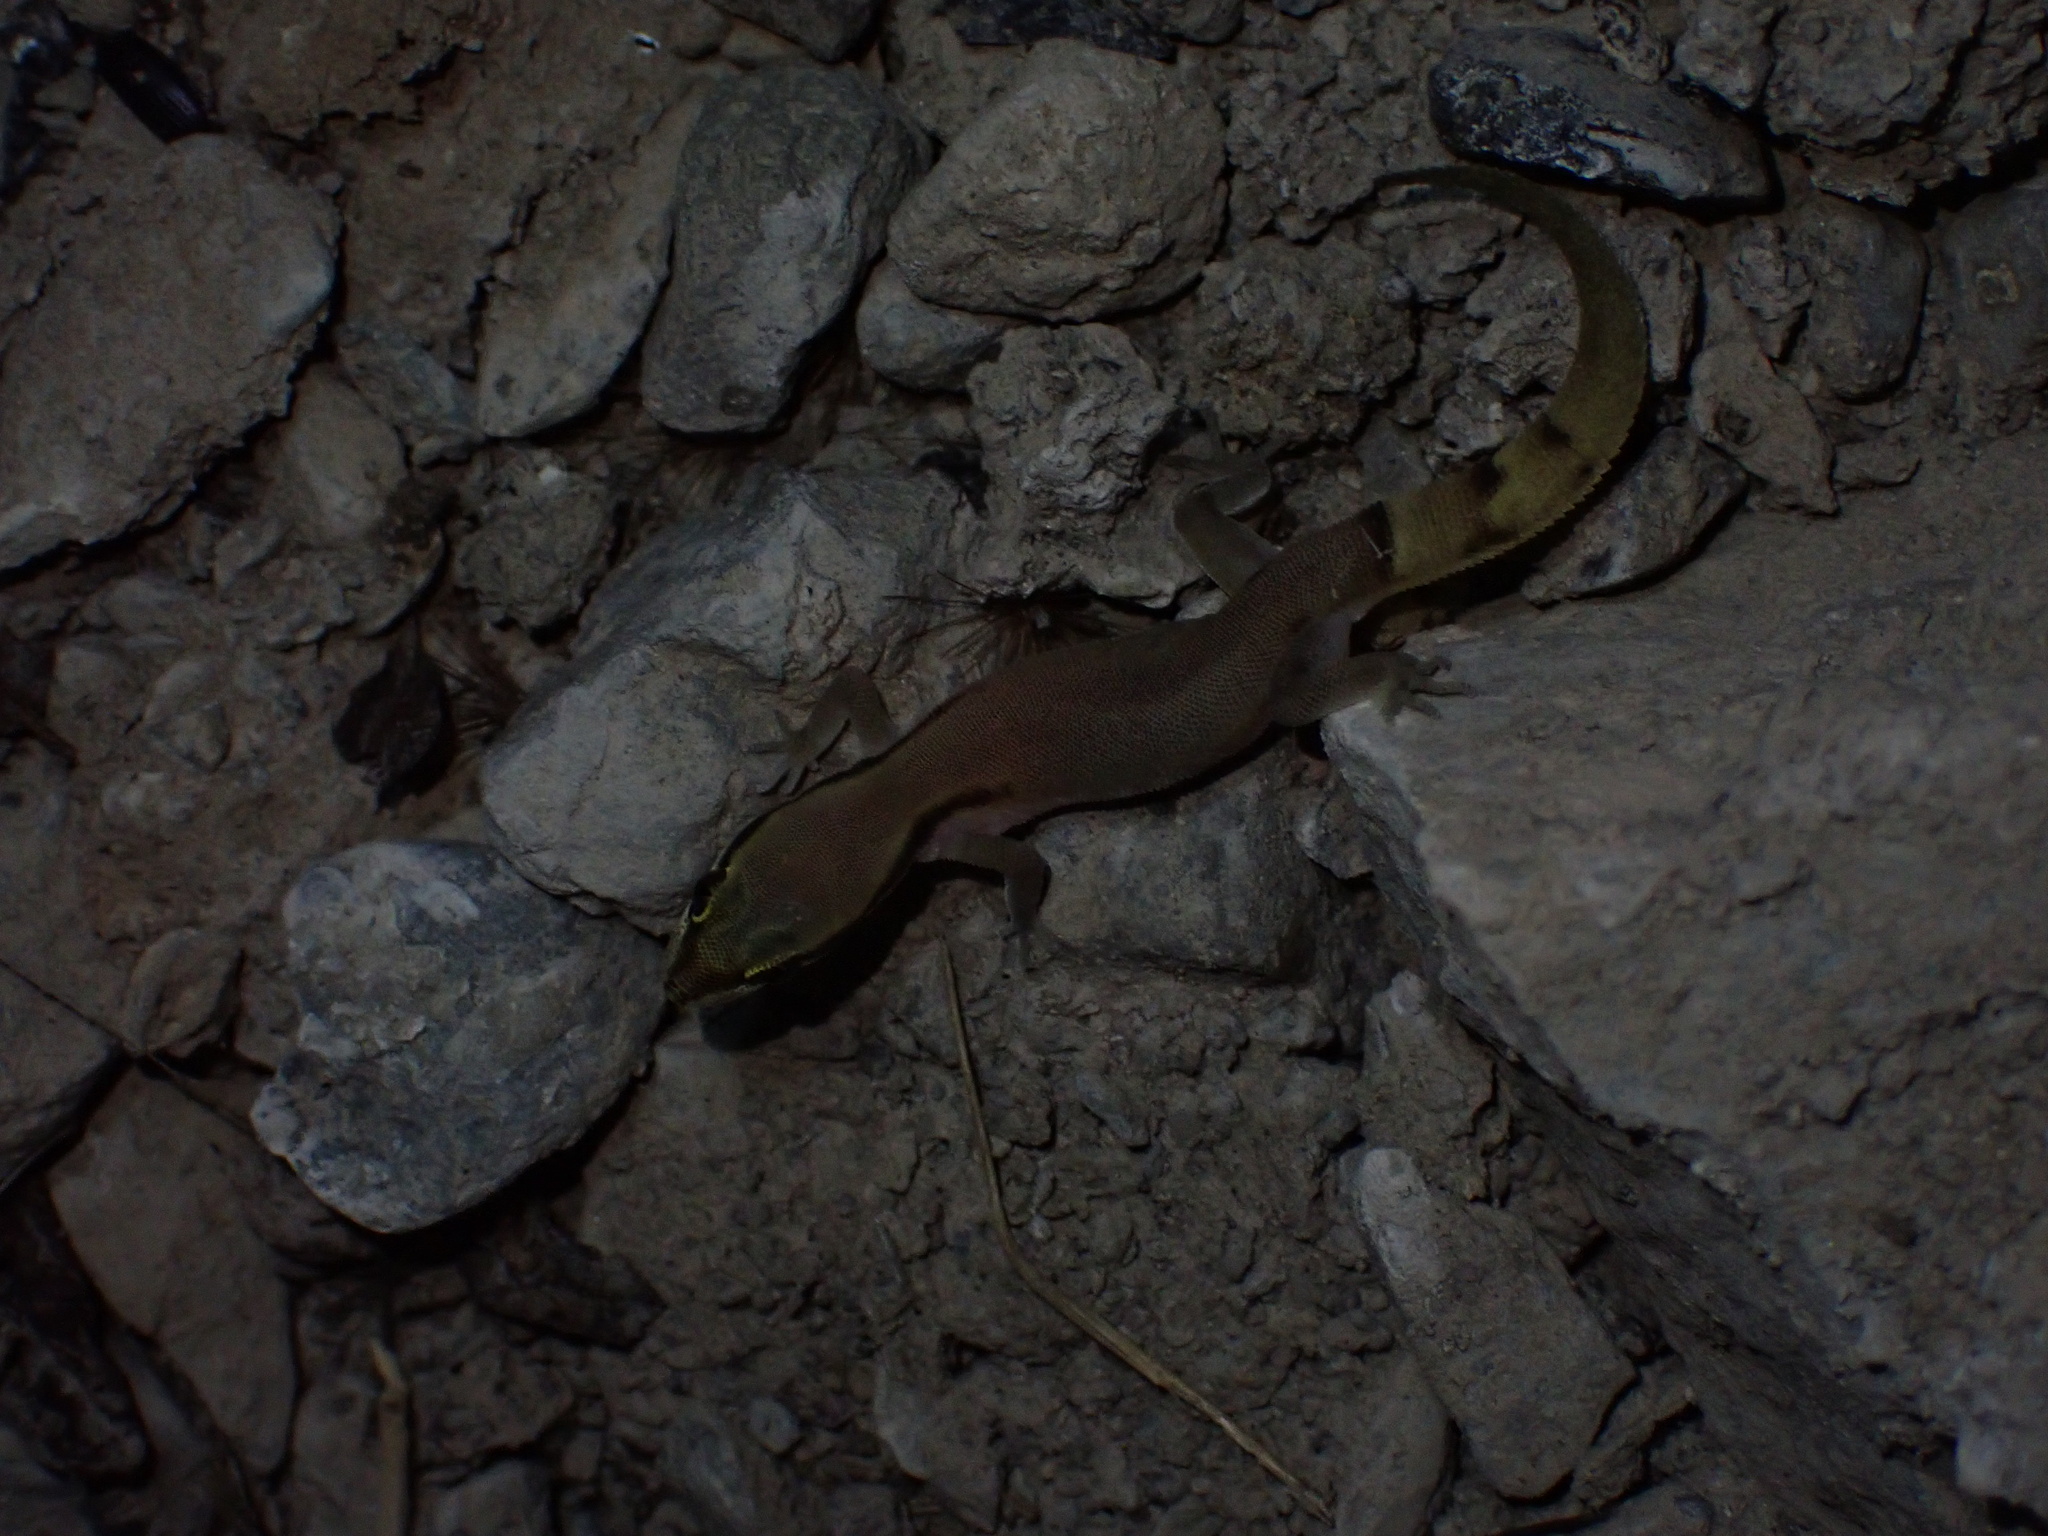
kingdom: Animalia
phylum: Chordata
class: Squamata
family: Gekkonidae
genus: Microgecko
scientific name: Microgecko persicus
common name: Persian dwarf gecko
